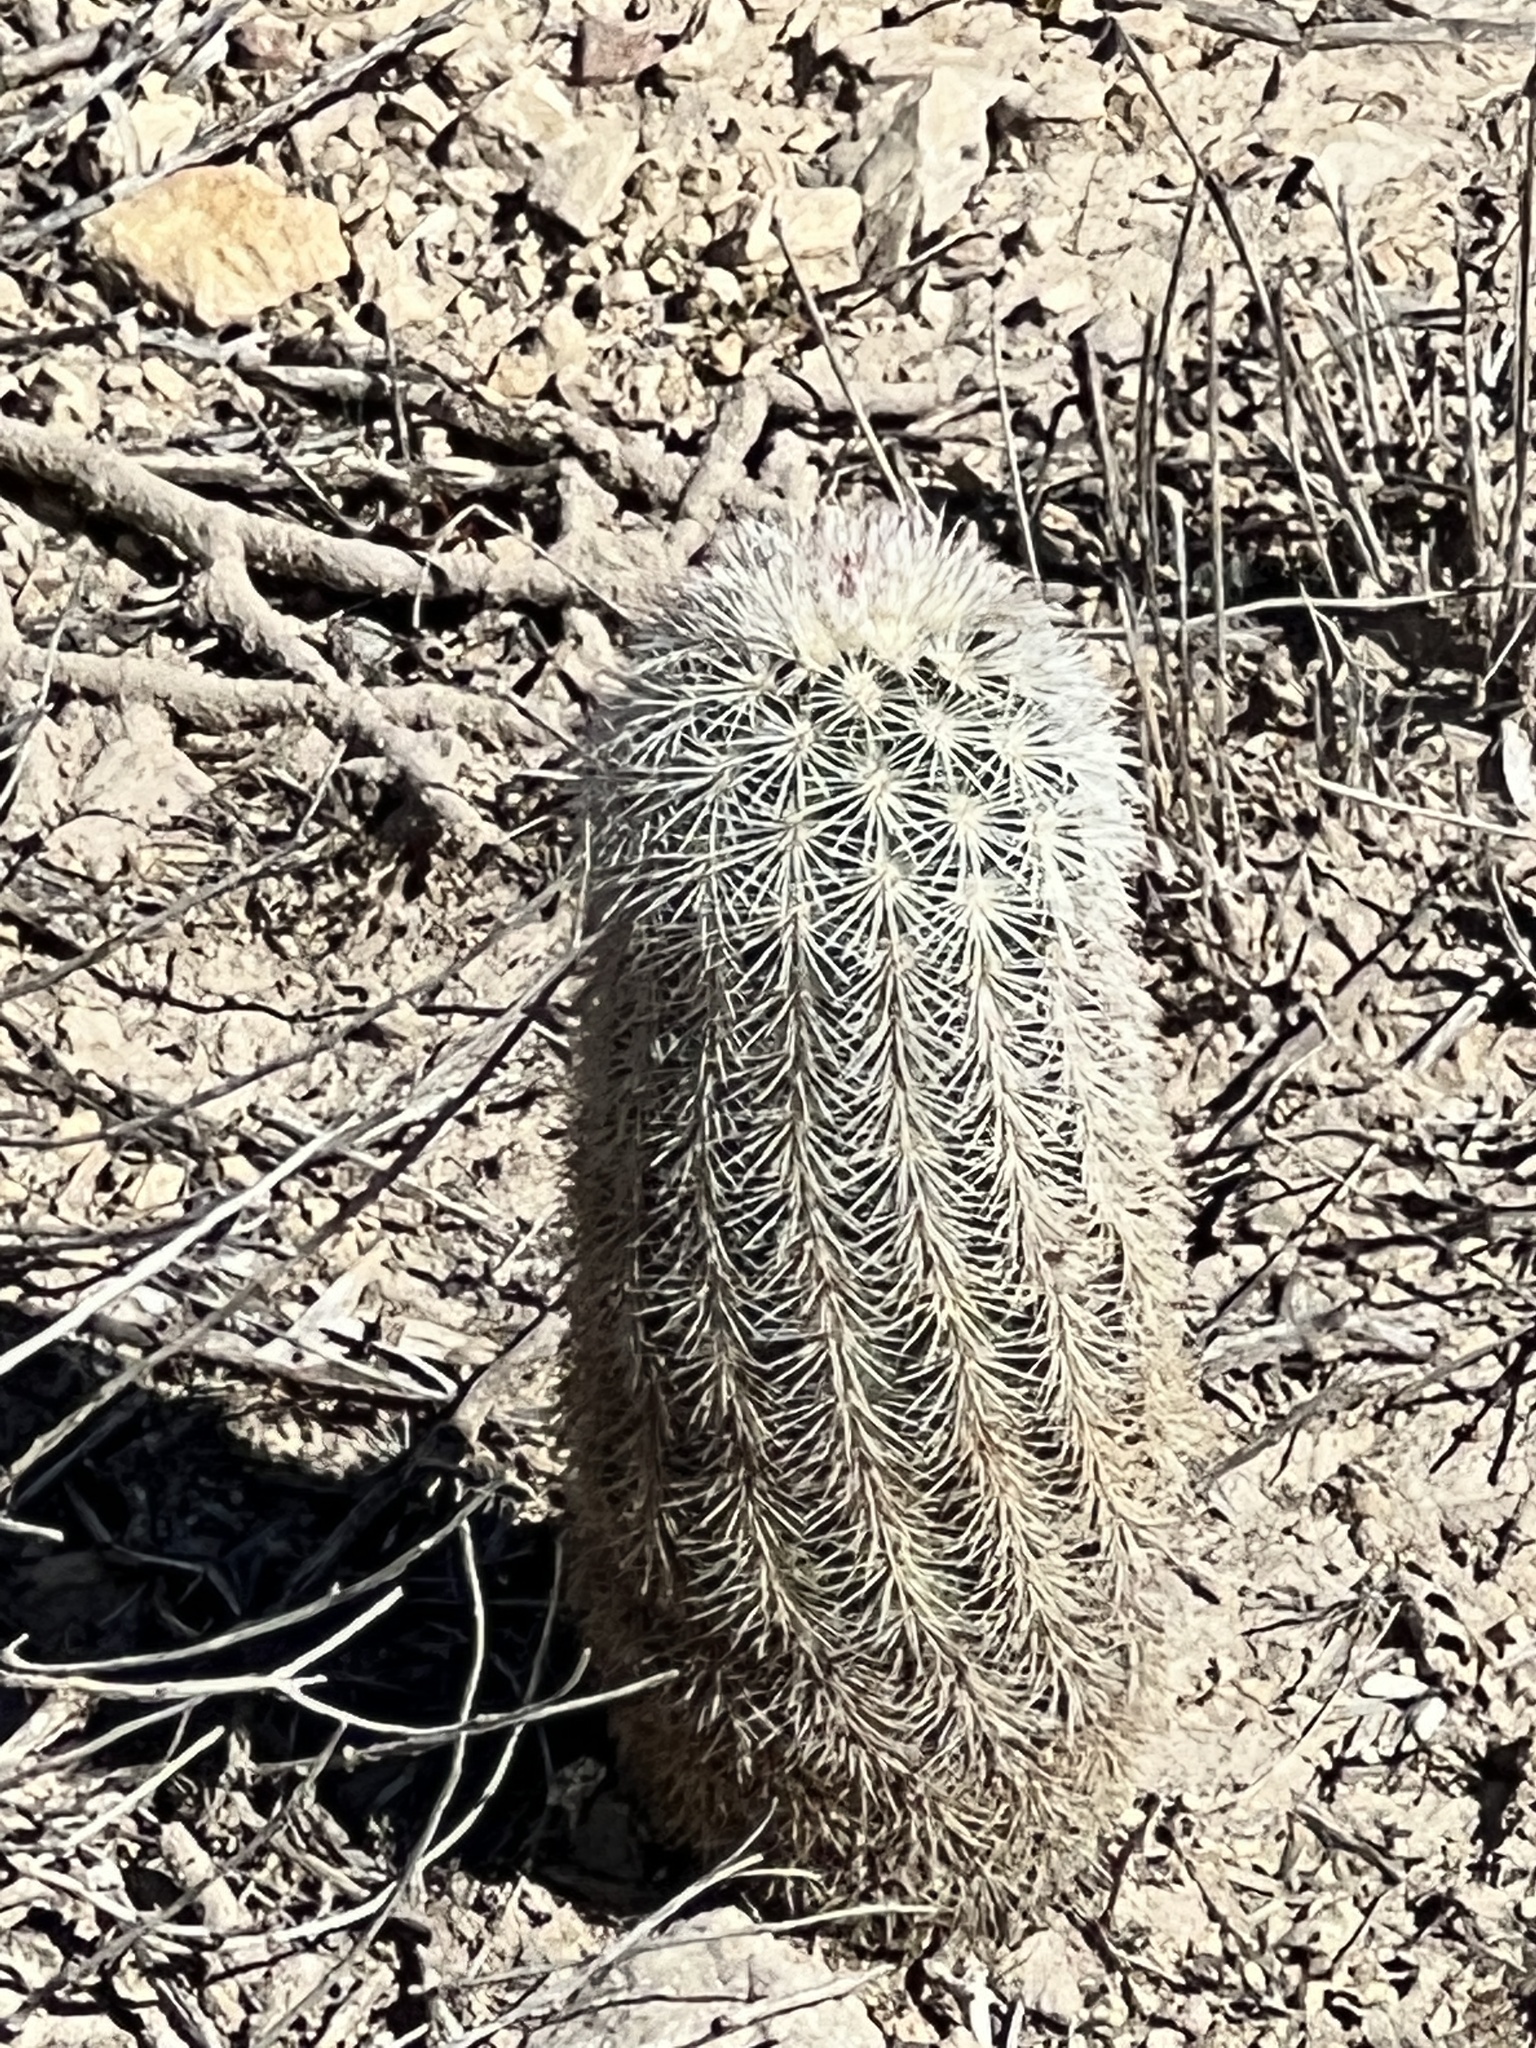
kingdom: Plantae
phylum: Tracheophyta
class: Magnoliopsida
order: Caryophyllales
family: Cactaceae
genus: Echinocereus
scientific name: Echinocereus dasyacanthus
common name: Spiny hedgehog cactus
